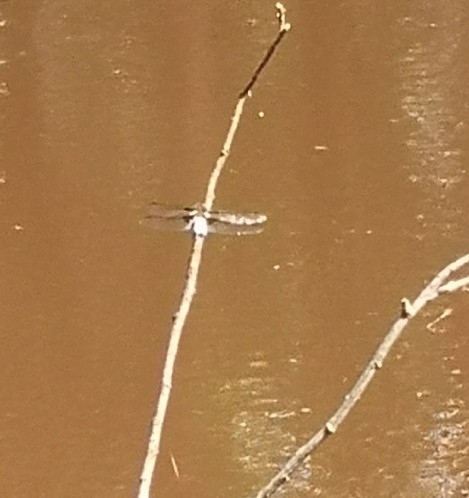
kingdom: Animalia
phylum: Arthropoda
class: Insecta
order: Odonata
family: Libellulidae
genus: Libellula
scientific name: Libellula depressa
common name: Broad-bodied chaser
